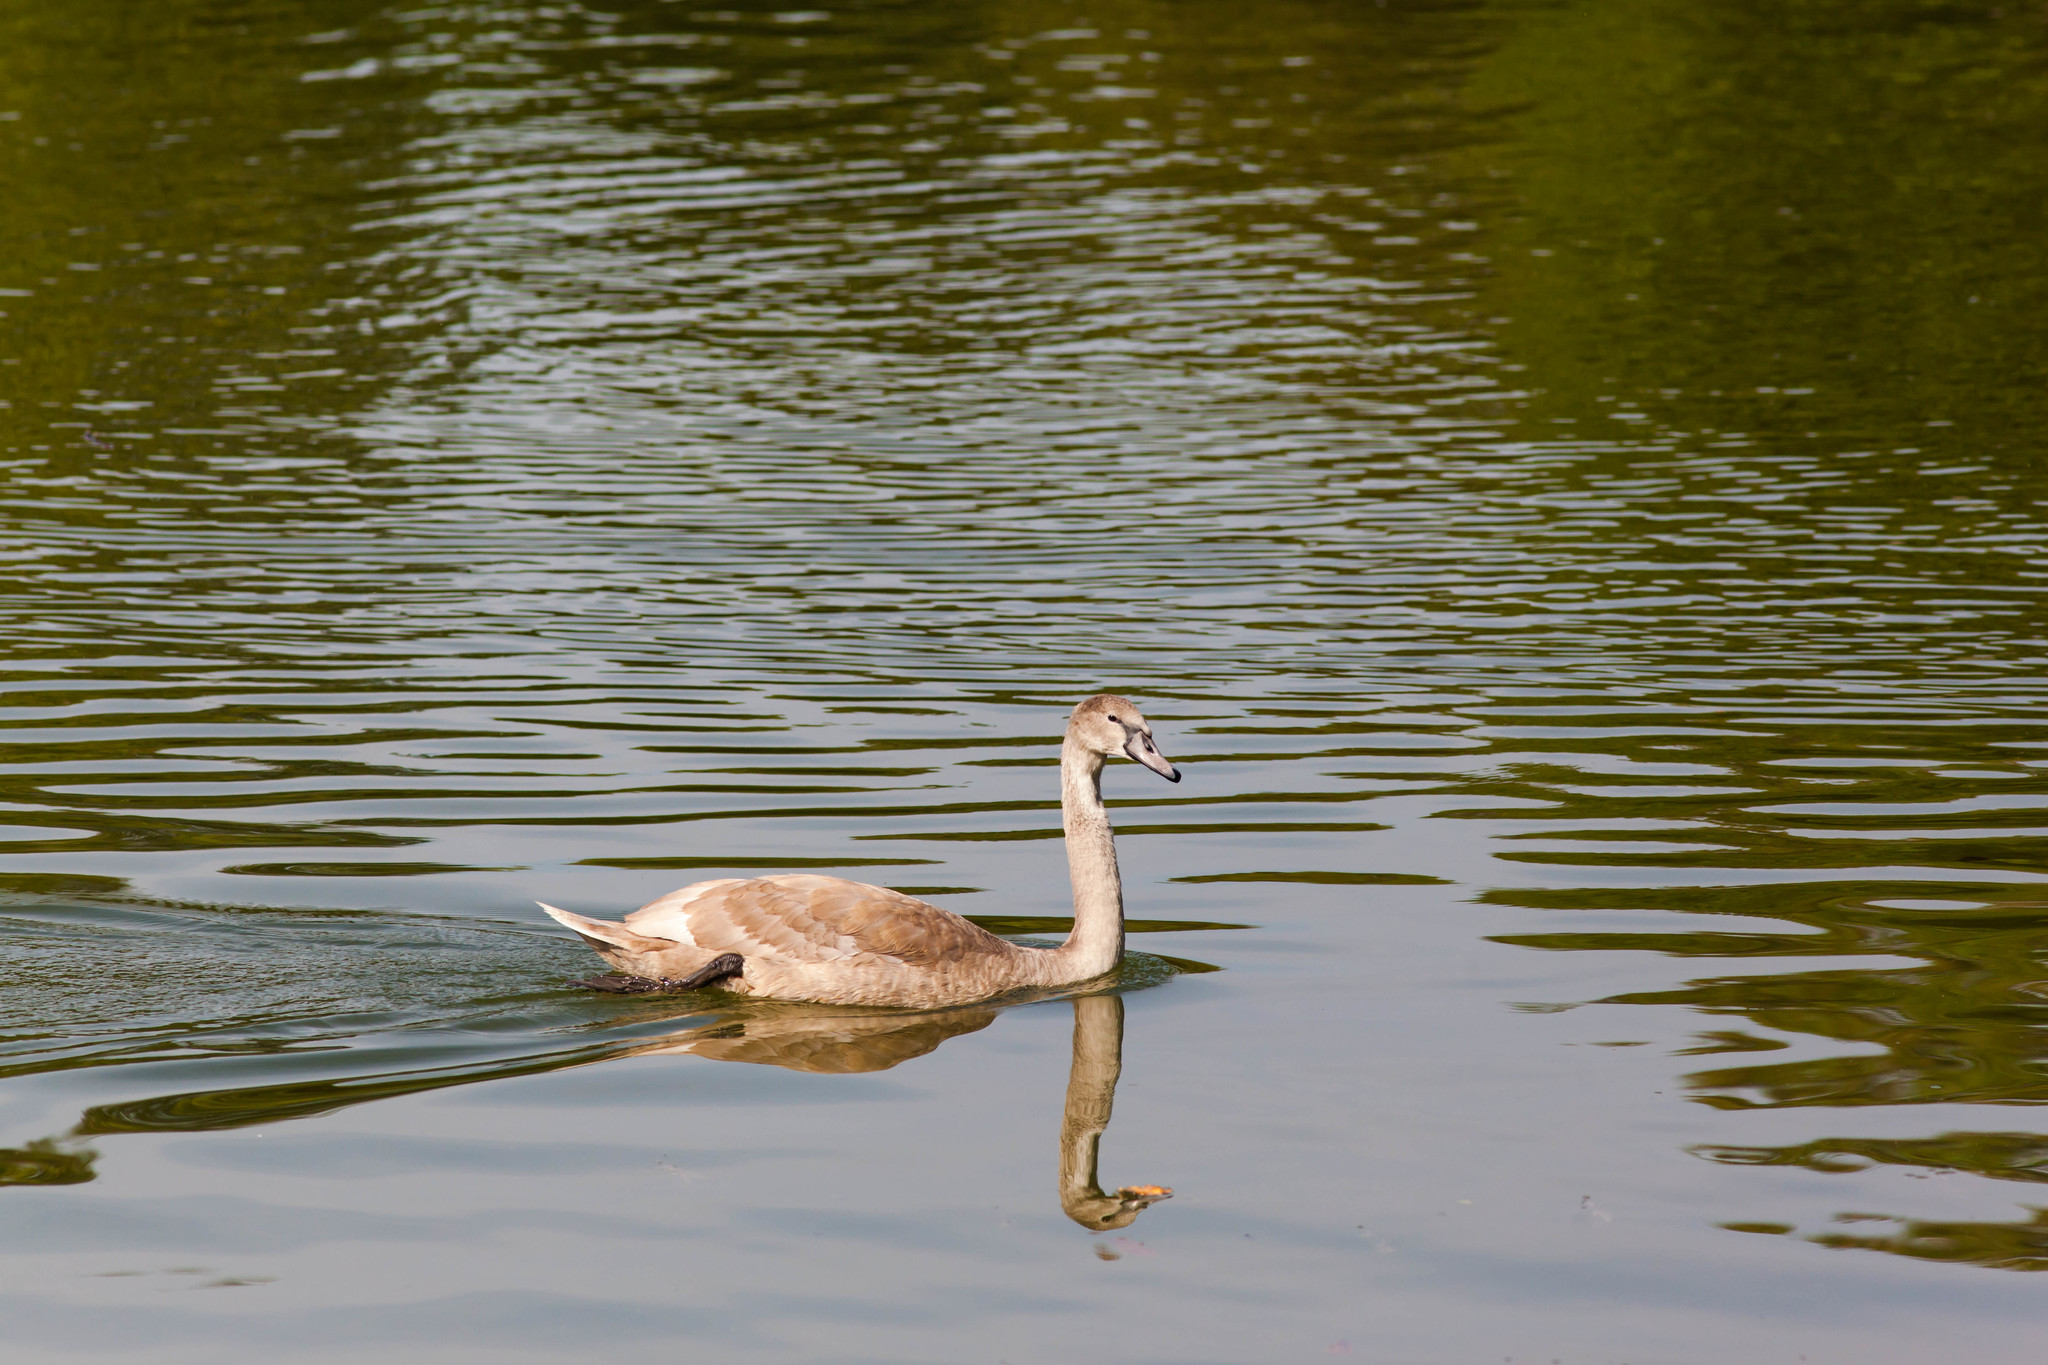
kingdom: Animalia
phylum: Chordata
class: Aves
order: Anseriformes
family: Anatidae
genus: Cygnus
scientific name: Cygnus olor
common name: Mute swan
